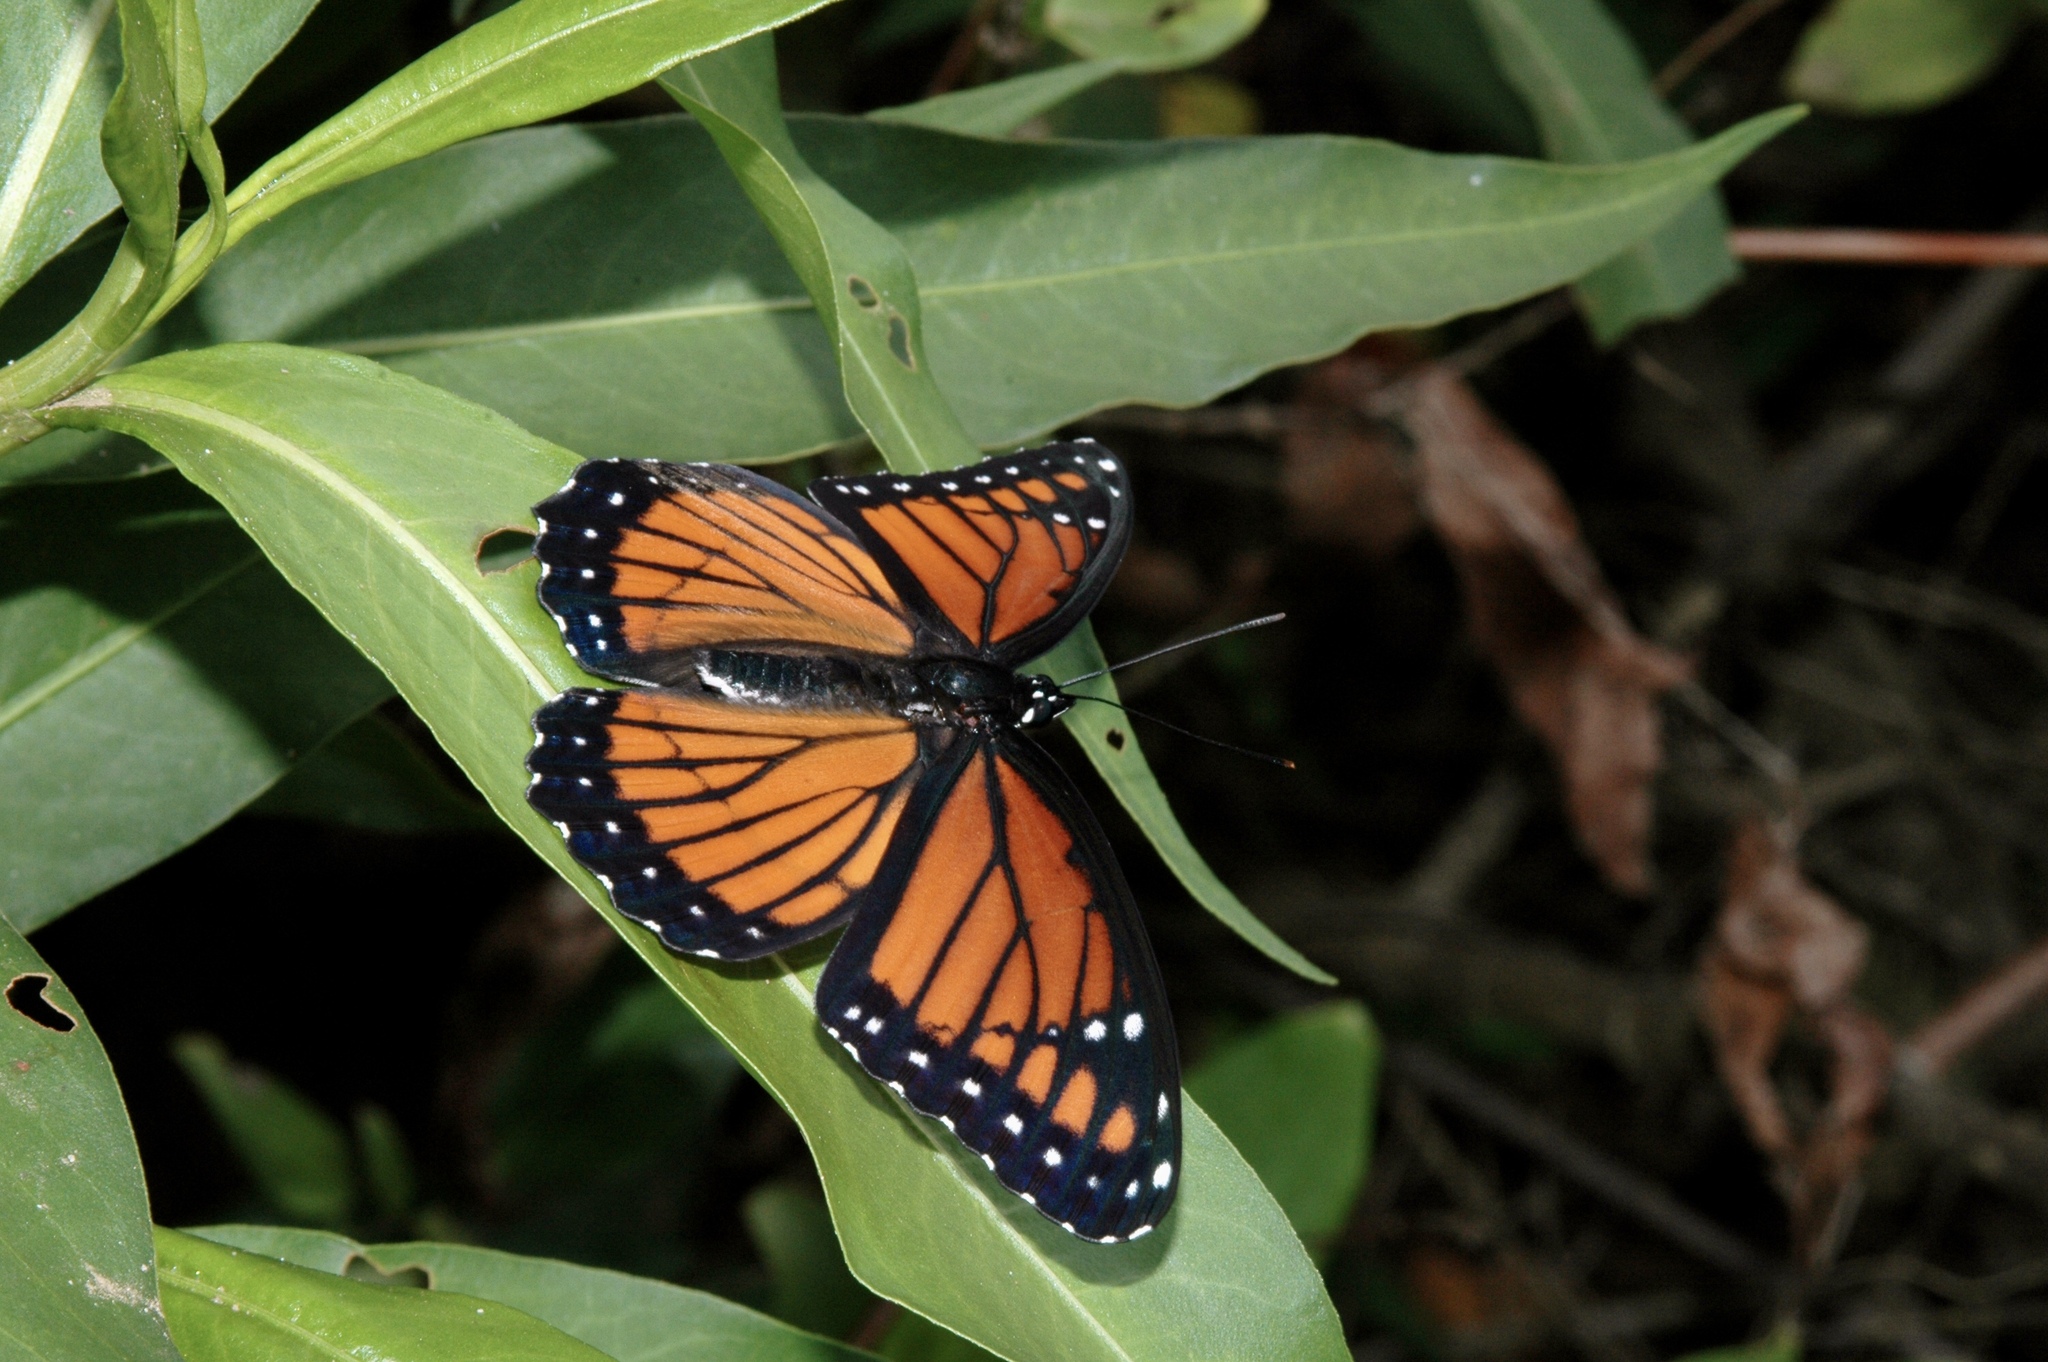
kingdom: Animalia
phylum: Arthropoda
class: Insecta
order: Lepidoptera
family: Nymphalidae
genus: Limenitis
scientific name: Limenitis archippus
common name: Viceroy
